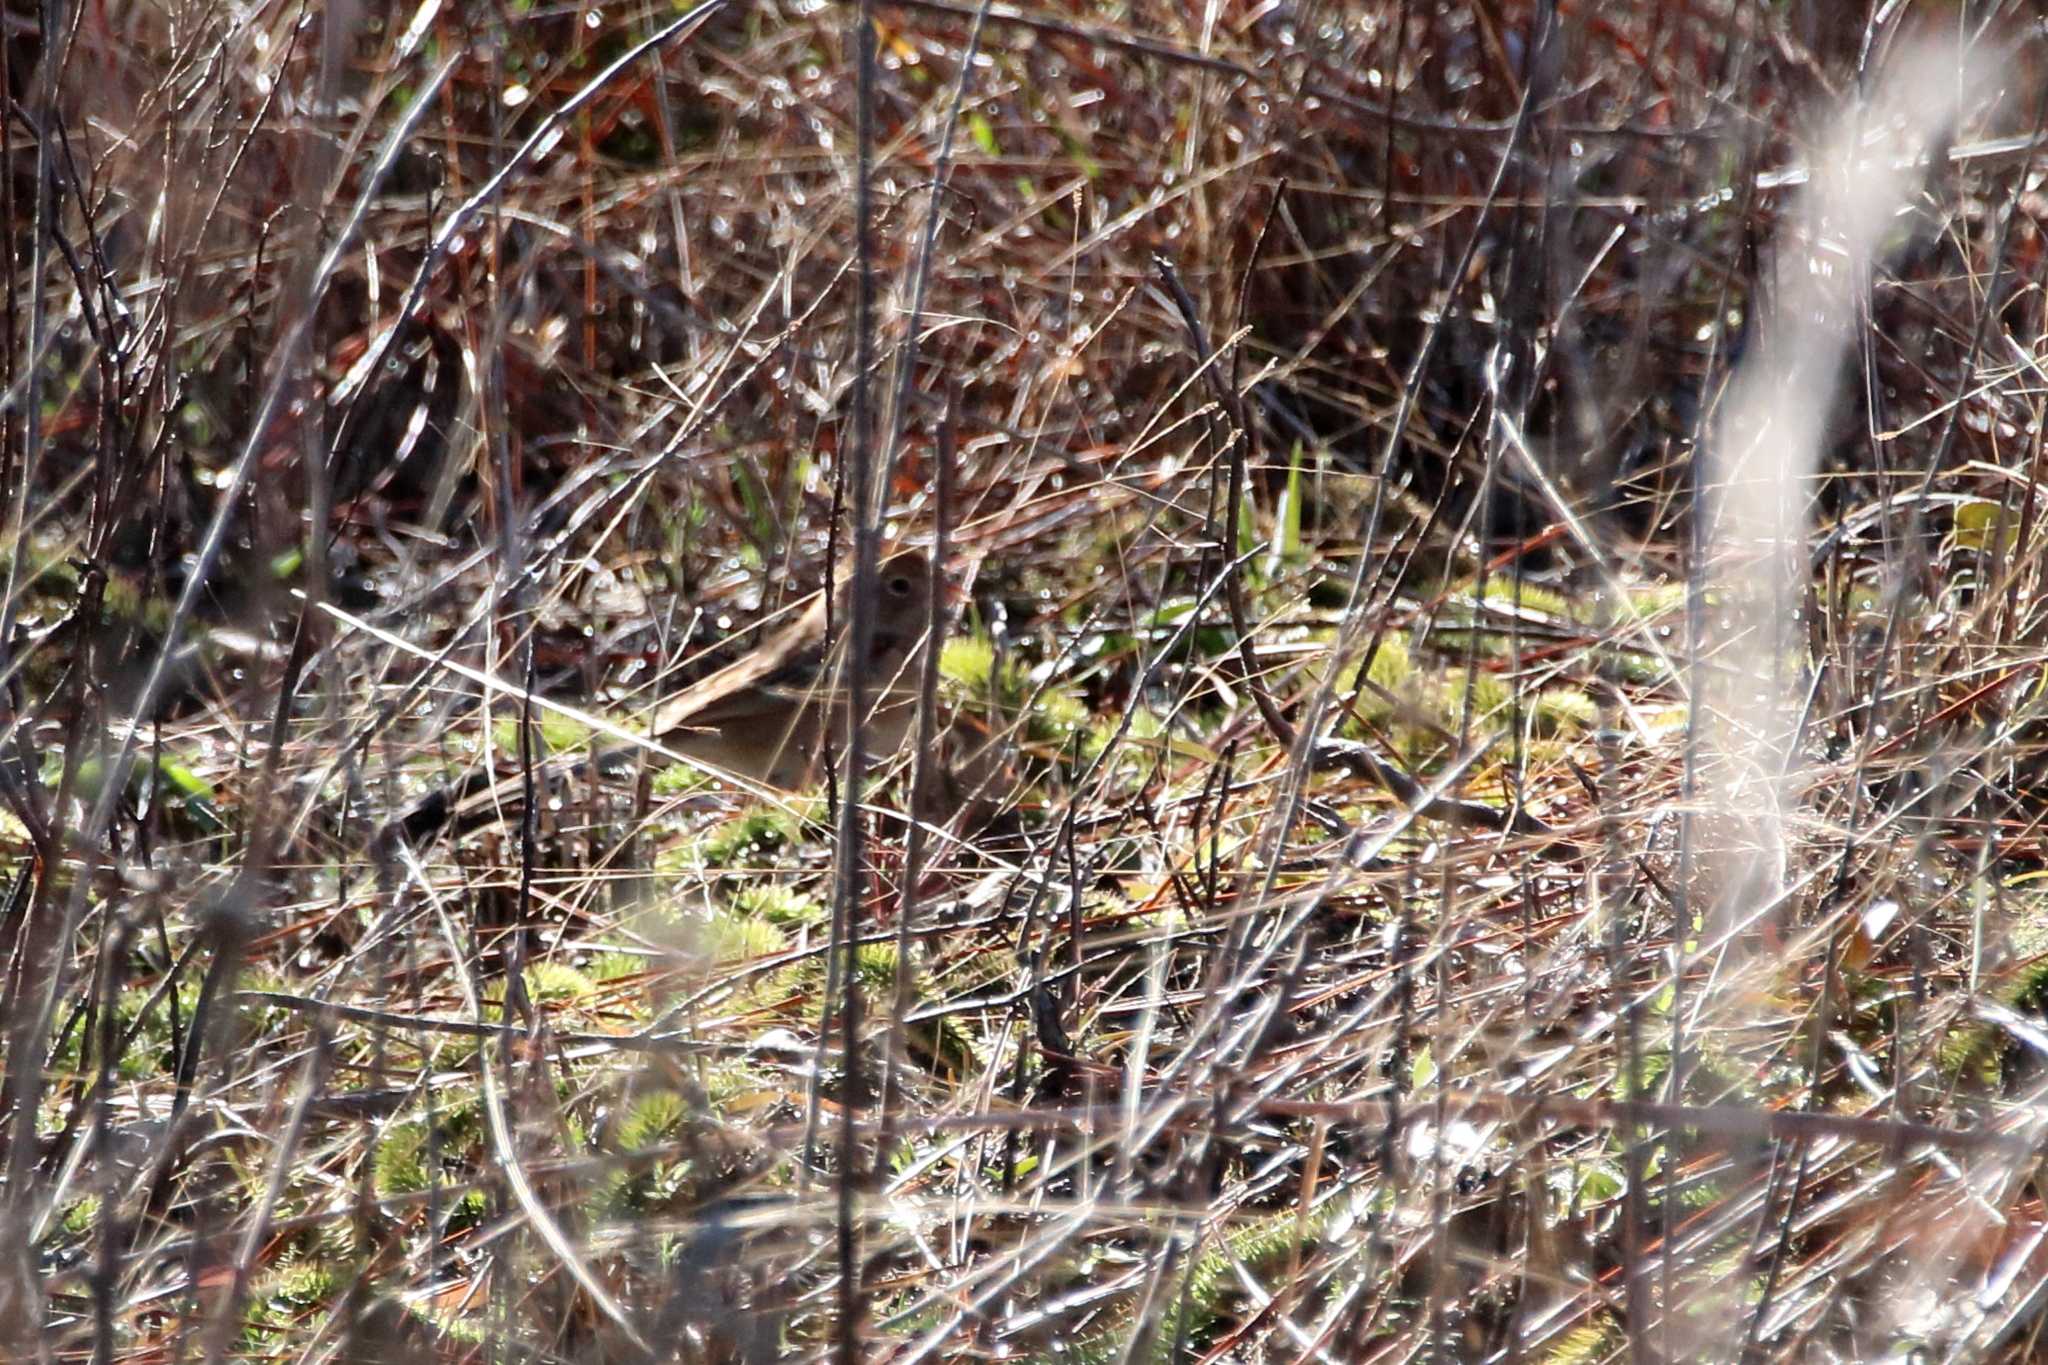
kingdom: Animalia
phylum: Chordata
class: Aves
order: Passeriformes
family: Passerellidae
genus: Spizella
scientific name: Spizella pusilla
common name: Field sparrow
